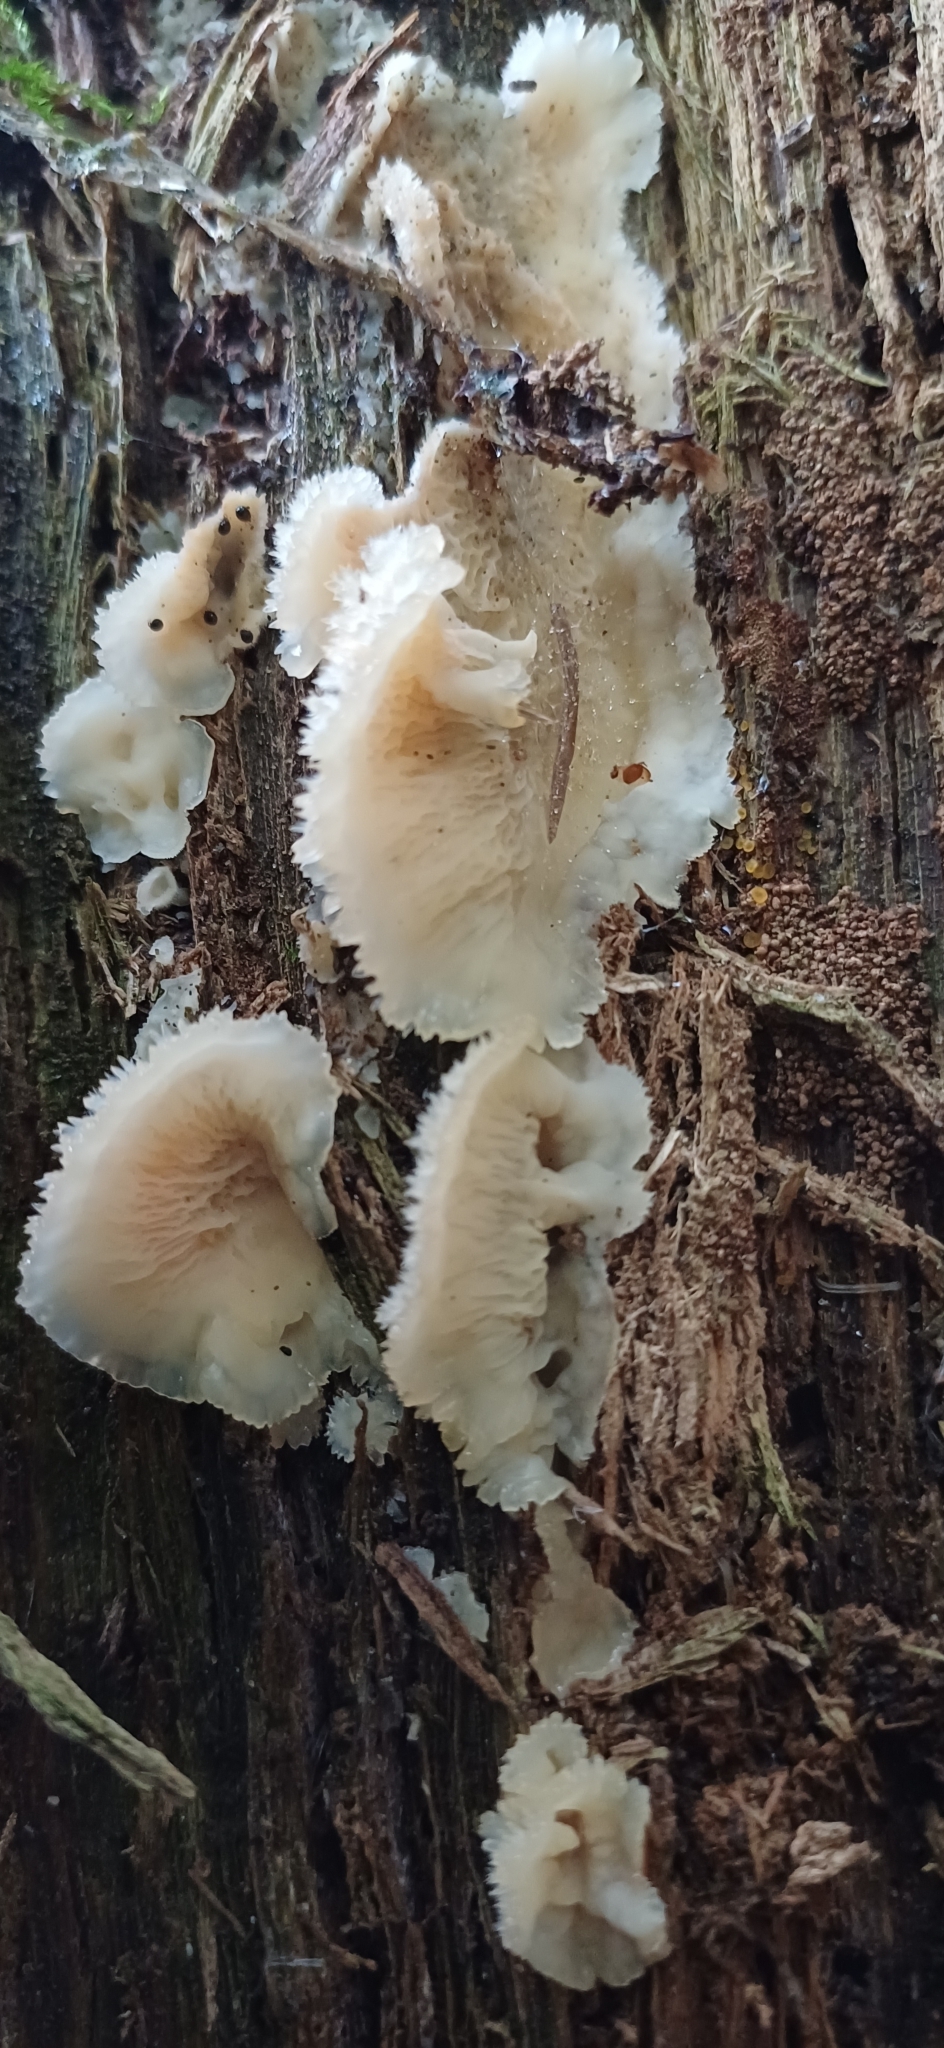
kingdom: Fungi
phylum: Basidiomycota
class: Agaricomycetes
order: Polyporales
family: Meruliaceae
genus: Phlebia
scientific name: Phlebia tremellosa
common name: Jelly rot
